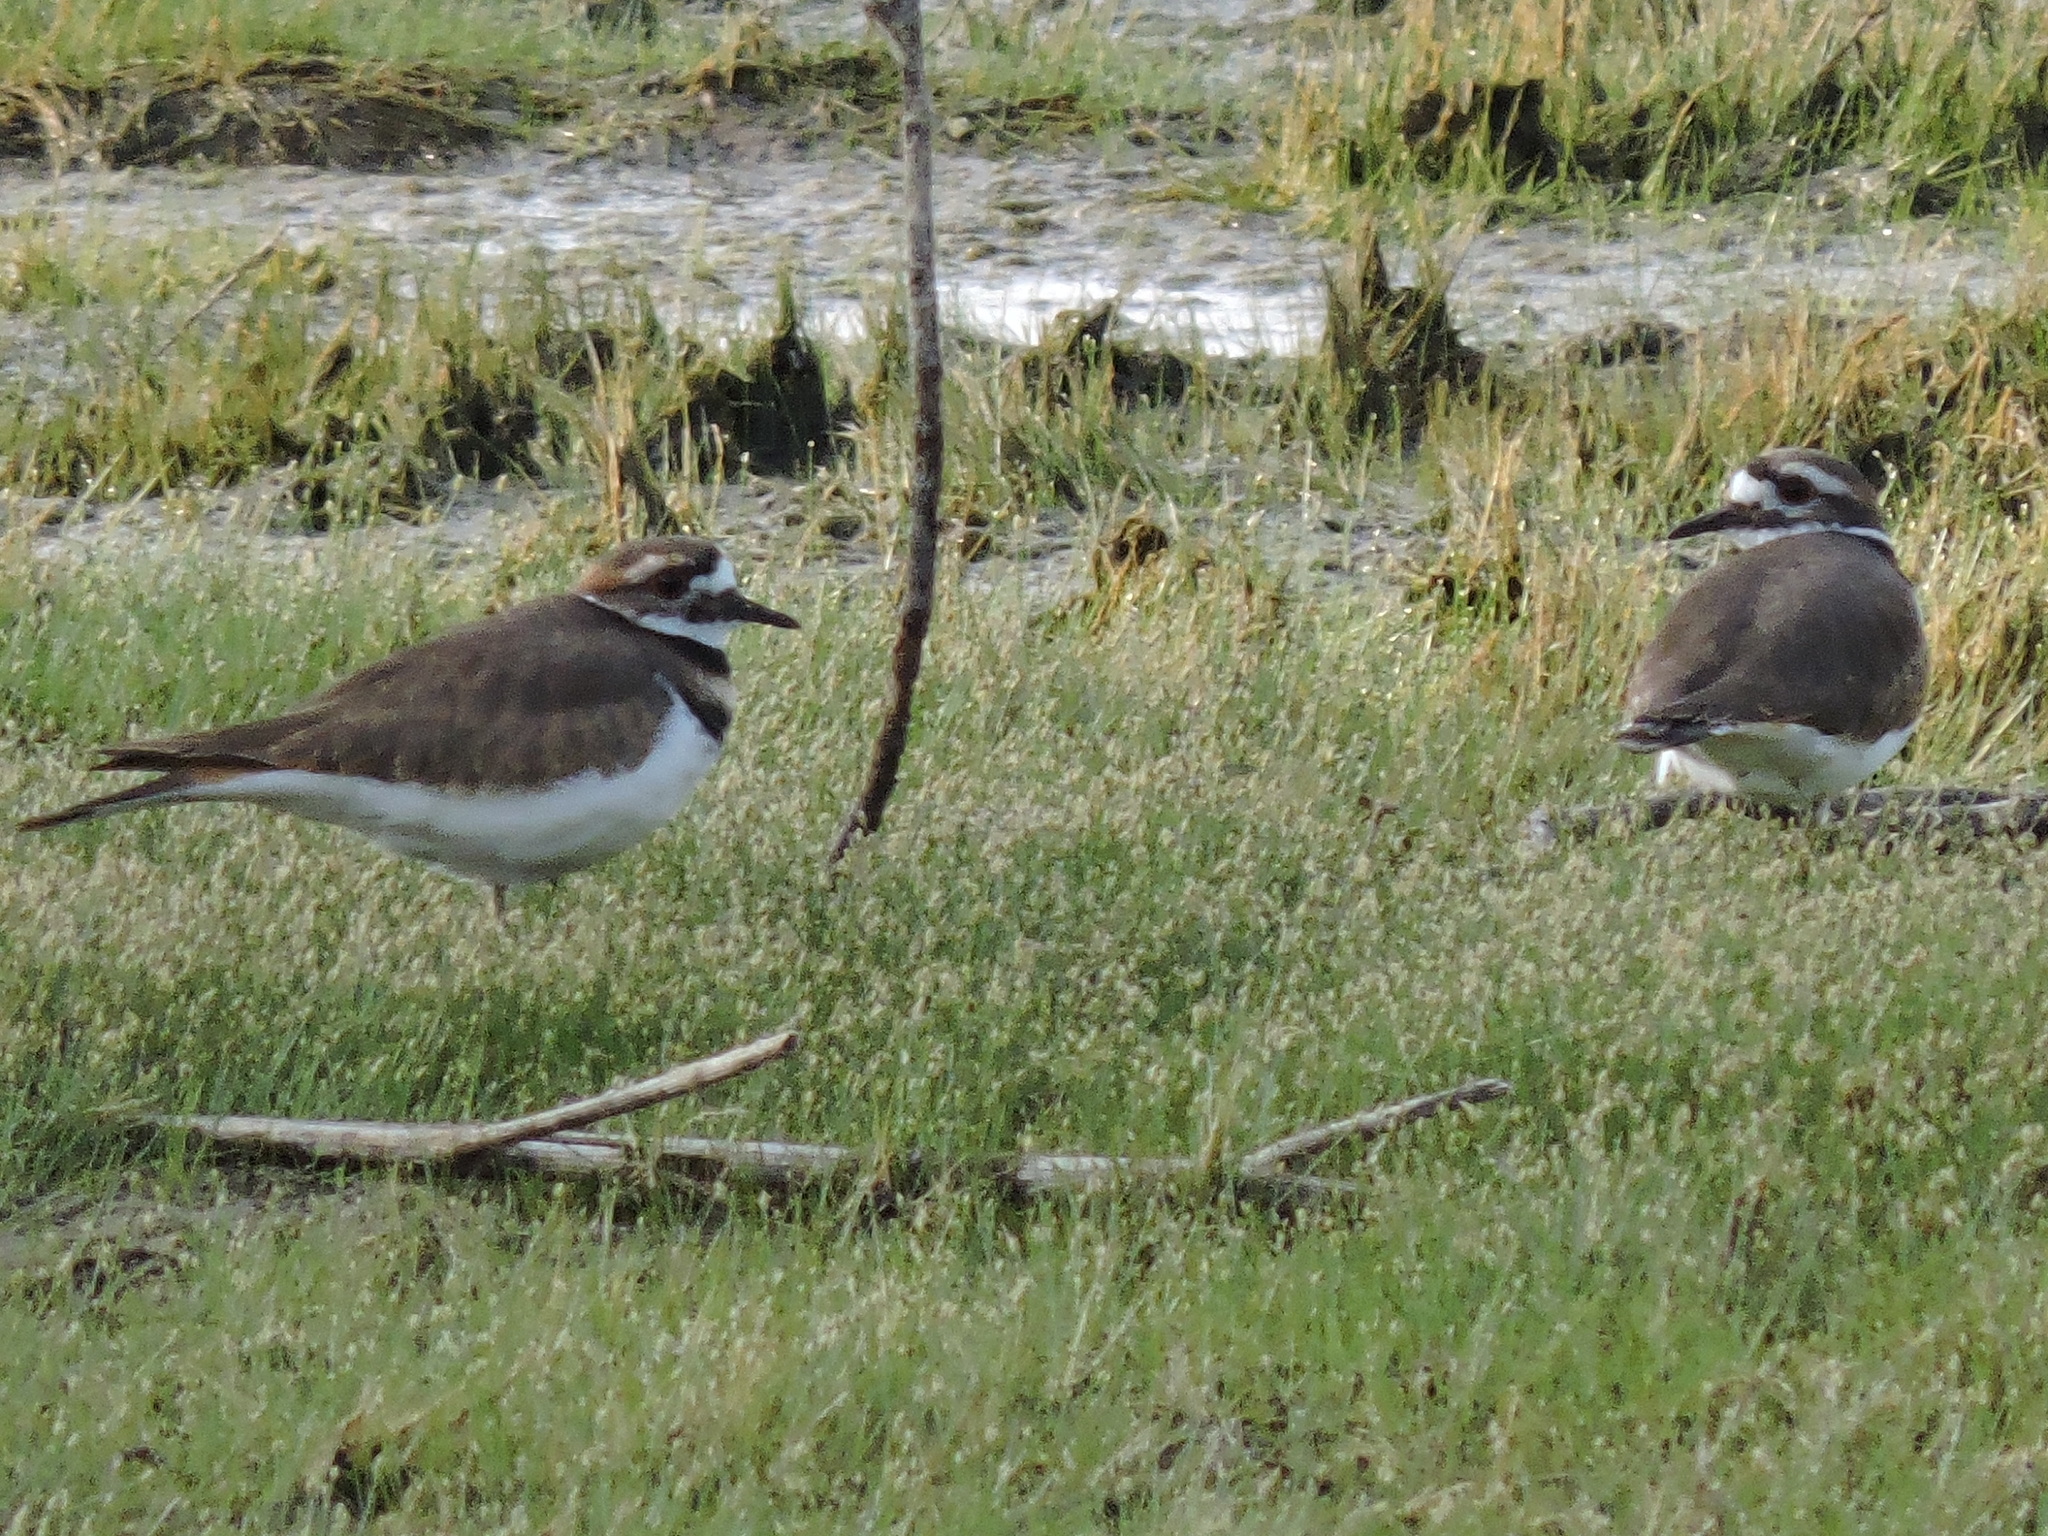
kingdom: Animalia
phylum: Chordata
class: Aves
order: Charadriiformes
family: Charadriidae
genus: Charadrius
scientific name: Charadrius vociferus
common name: Killdeer
